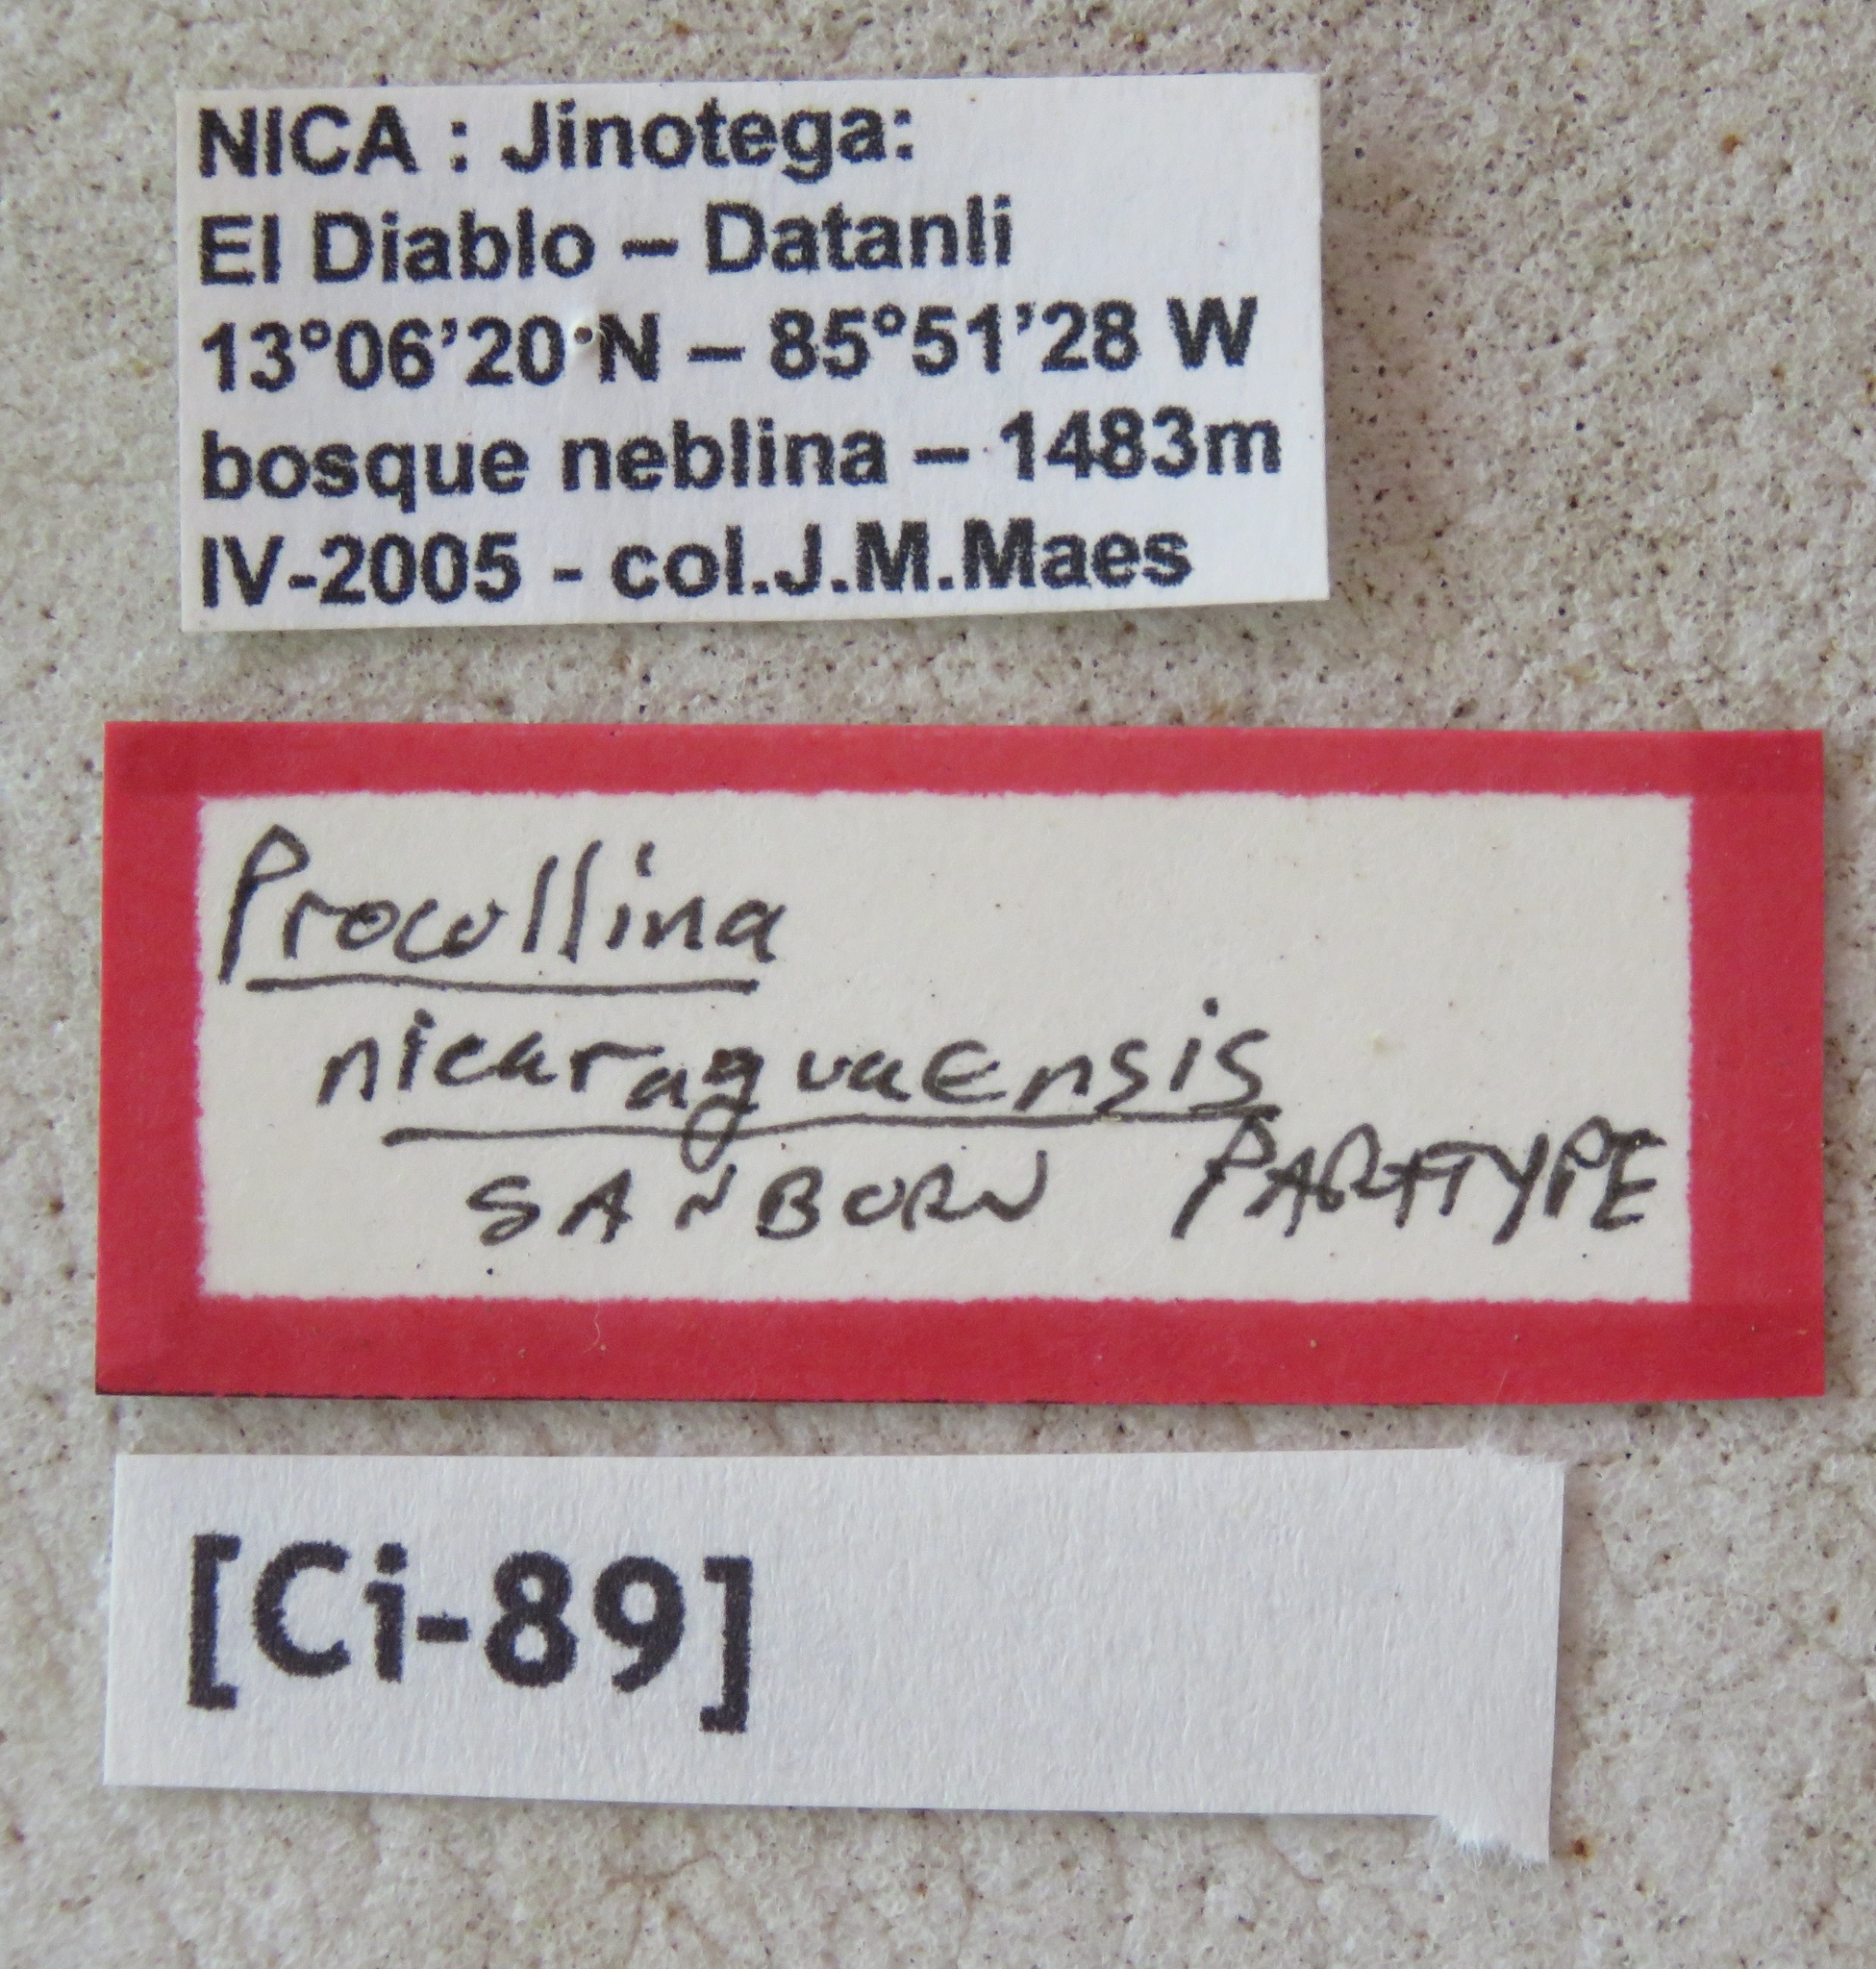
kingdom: Animalia
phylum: Arthropoda
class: Insecta
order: Hemiptera
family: Cicadidae
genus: Procollina
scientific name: Procollina nicaraguaensis
